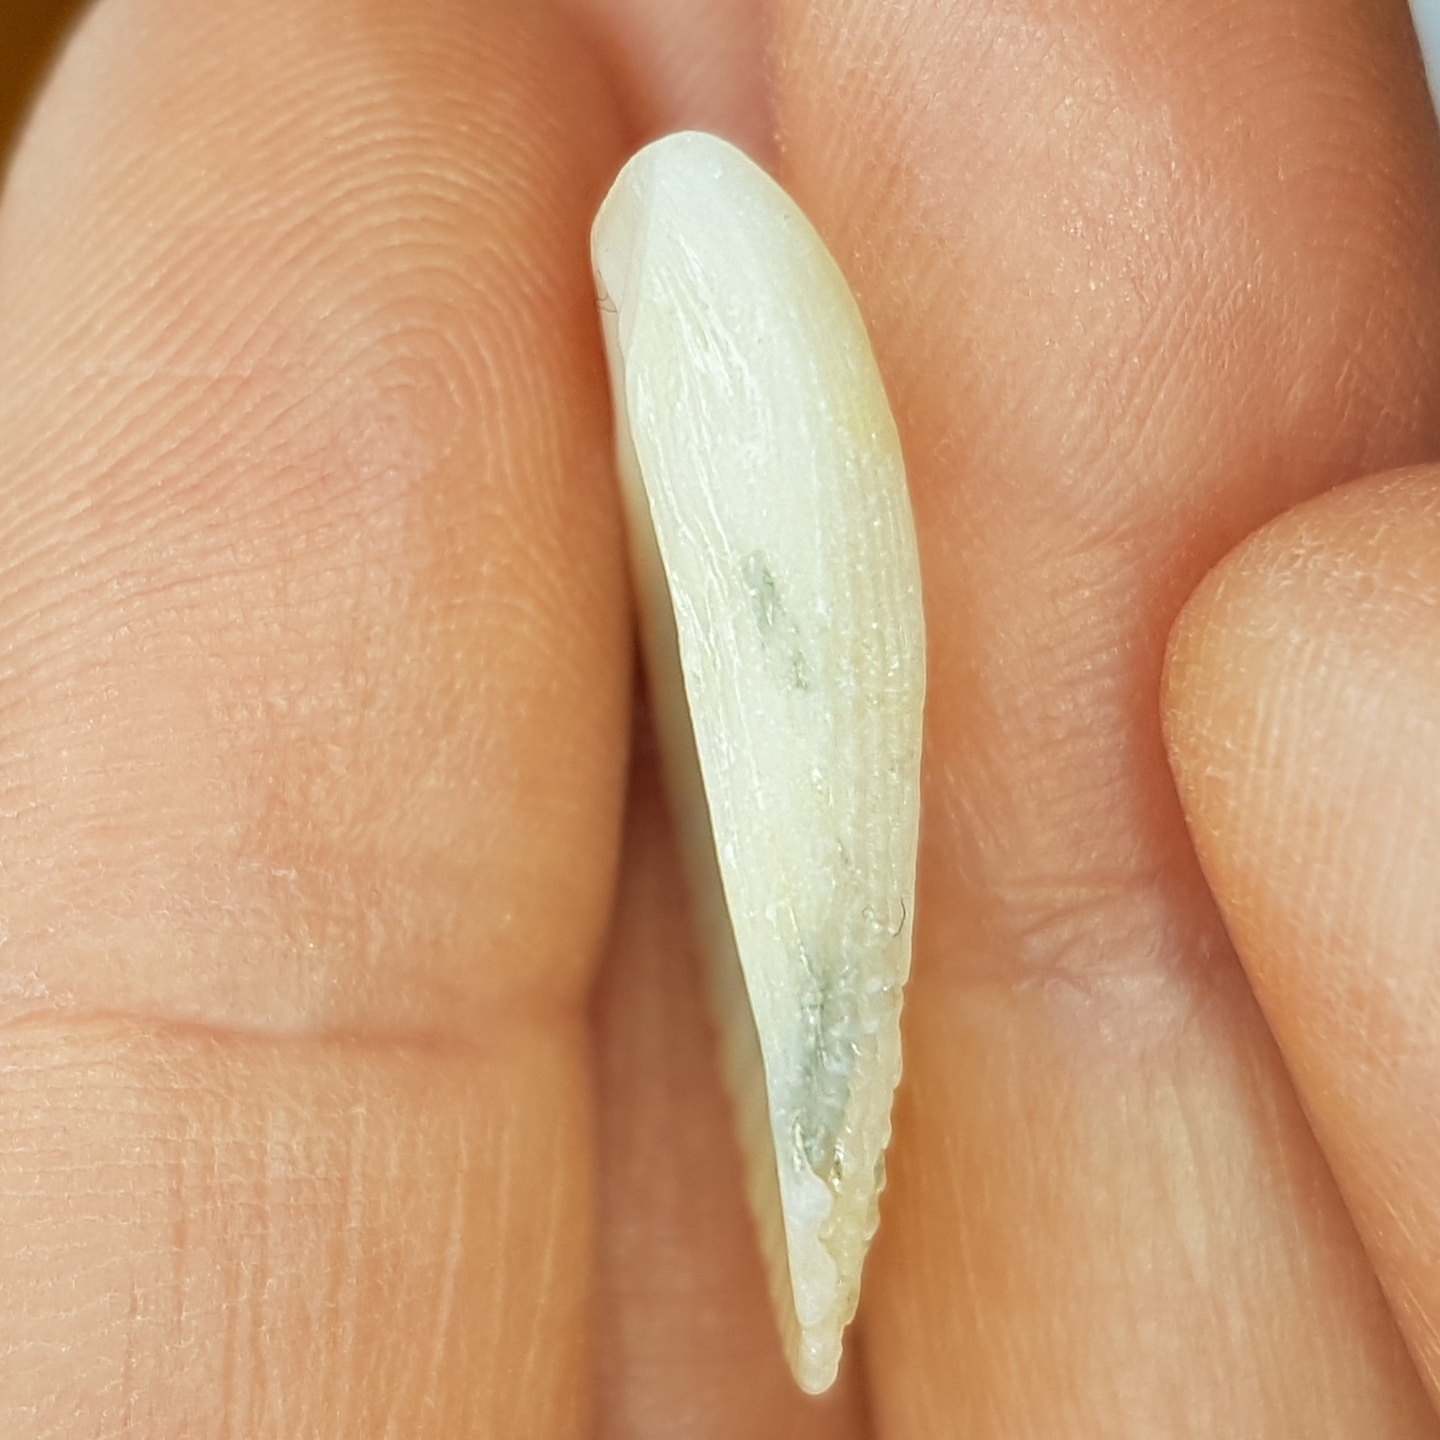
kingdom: Animalia
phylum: Mollusca
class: Bivalvia
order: Limida
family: Limidae
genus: Lima
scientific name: Lima lima
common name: Frilled file shell
